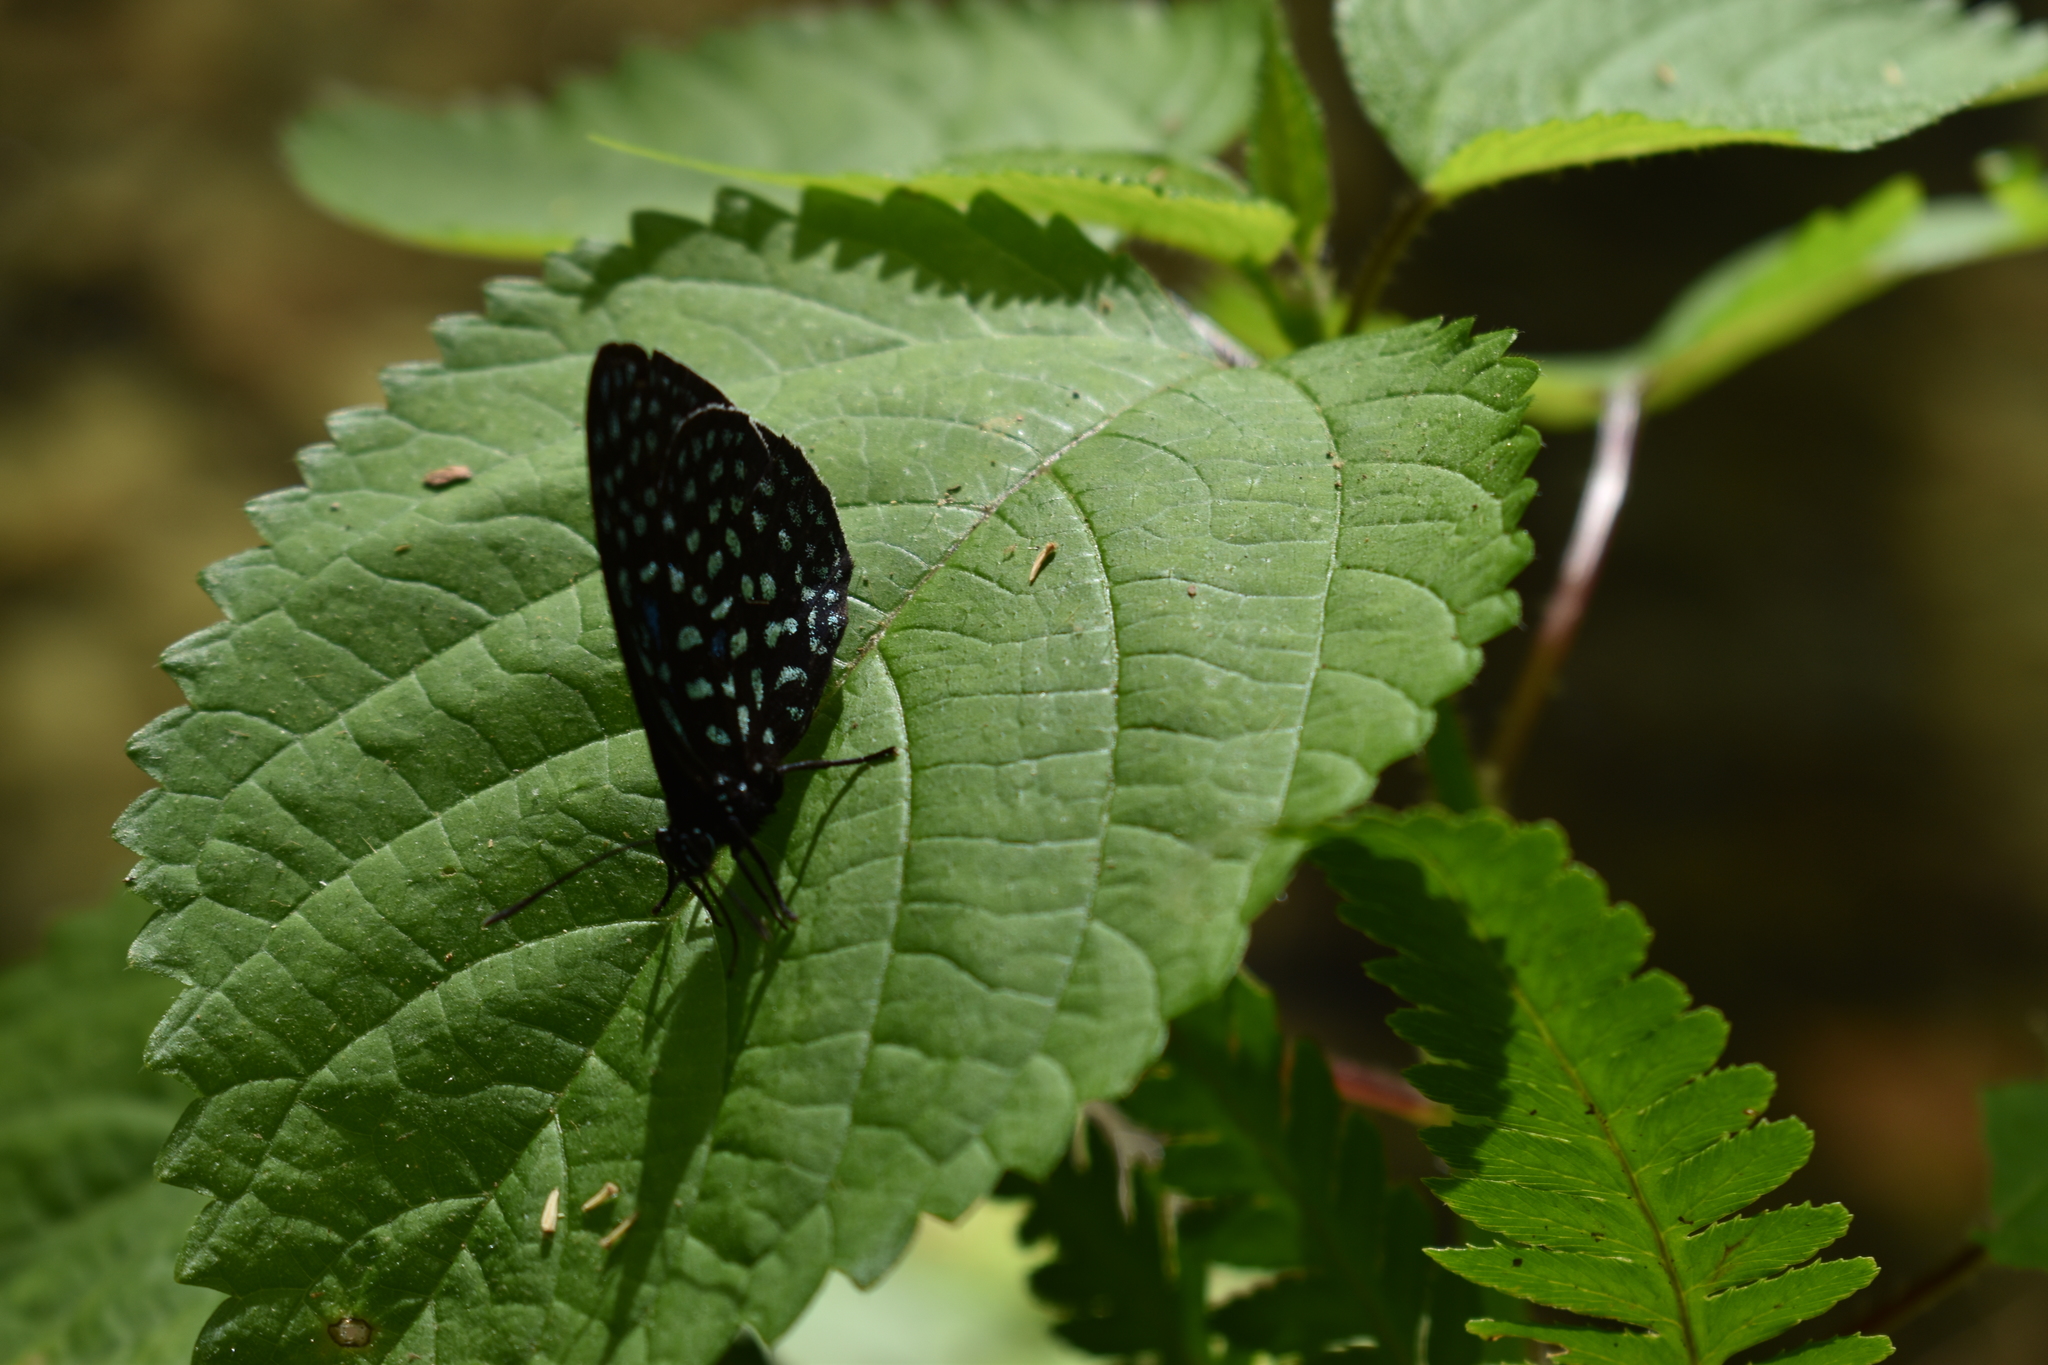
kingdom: Animalia
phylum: Arthropoda
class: Insecta
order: Lepidoptera
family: Lycaenidae
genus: Eumaeus
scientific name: Eumaeus childrenae
